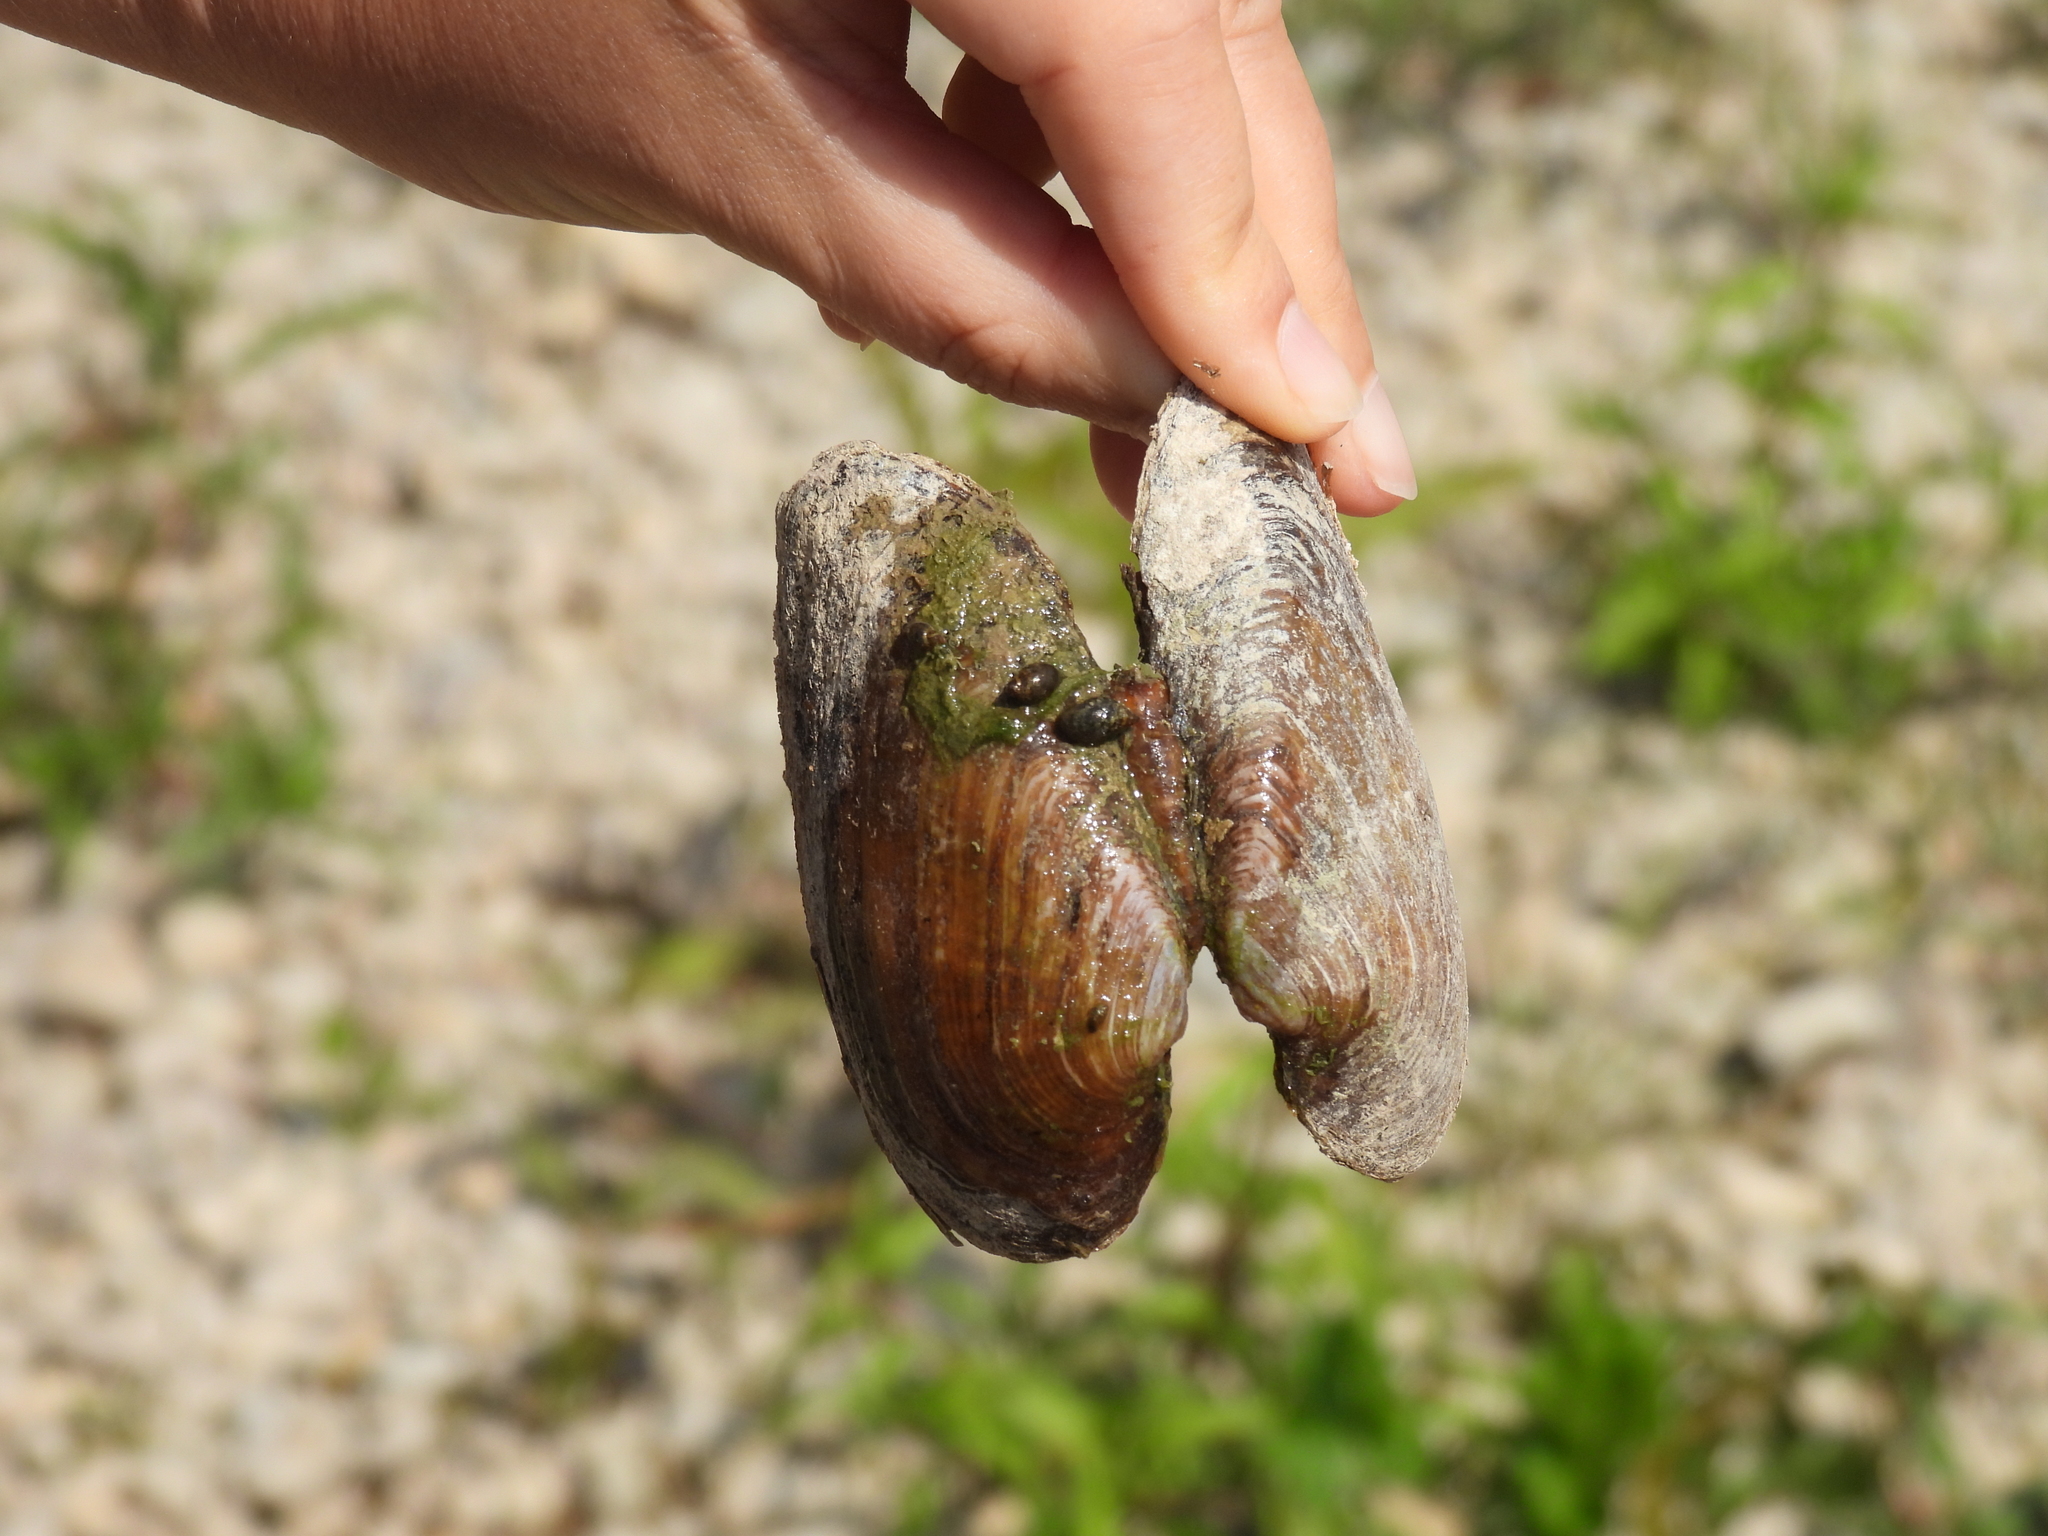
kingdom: Animalia
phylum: Mollusca
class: Bivalvia
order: Unionida
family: Unionidae
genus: Eurynia
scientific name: Eurynia dilatata
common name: Spike
